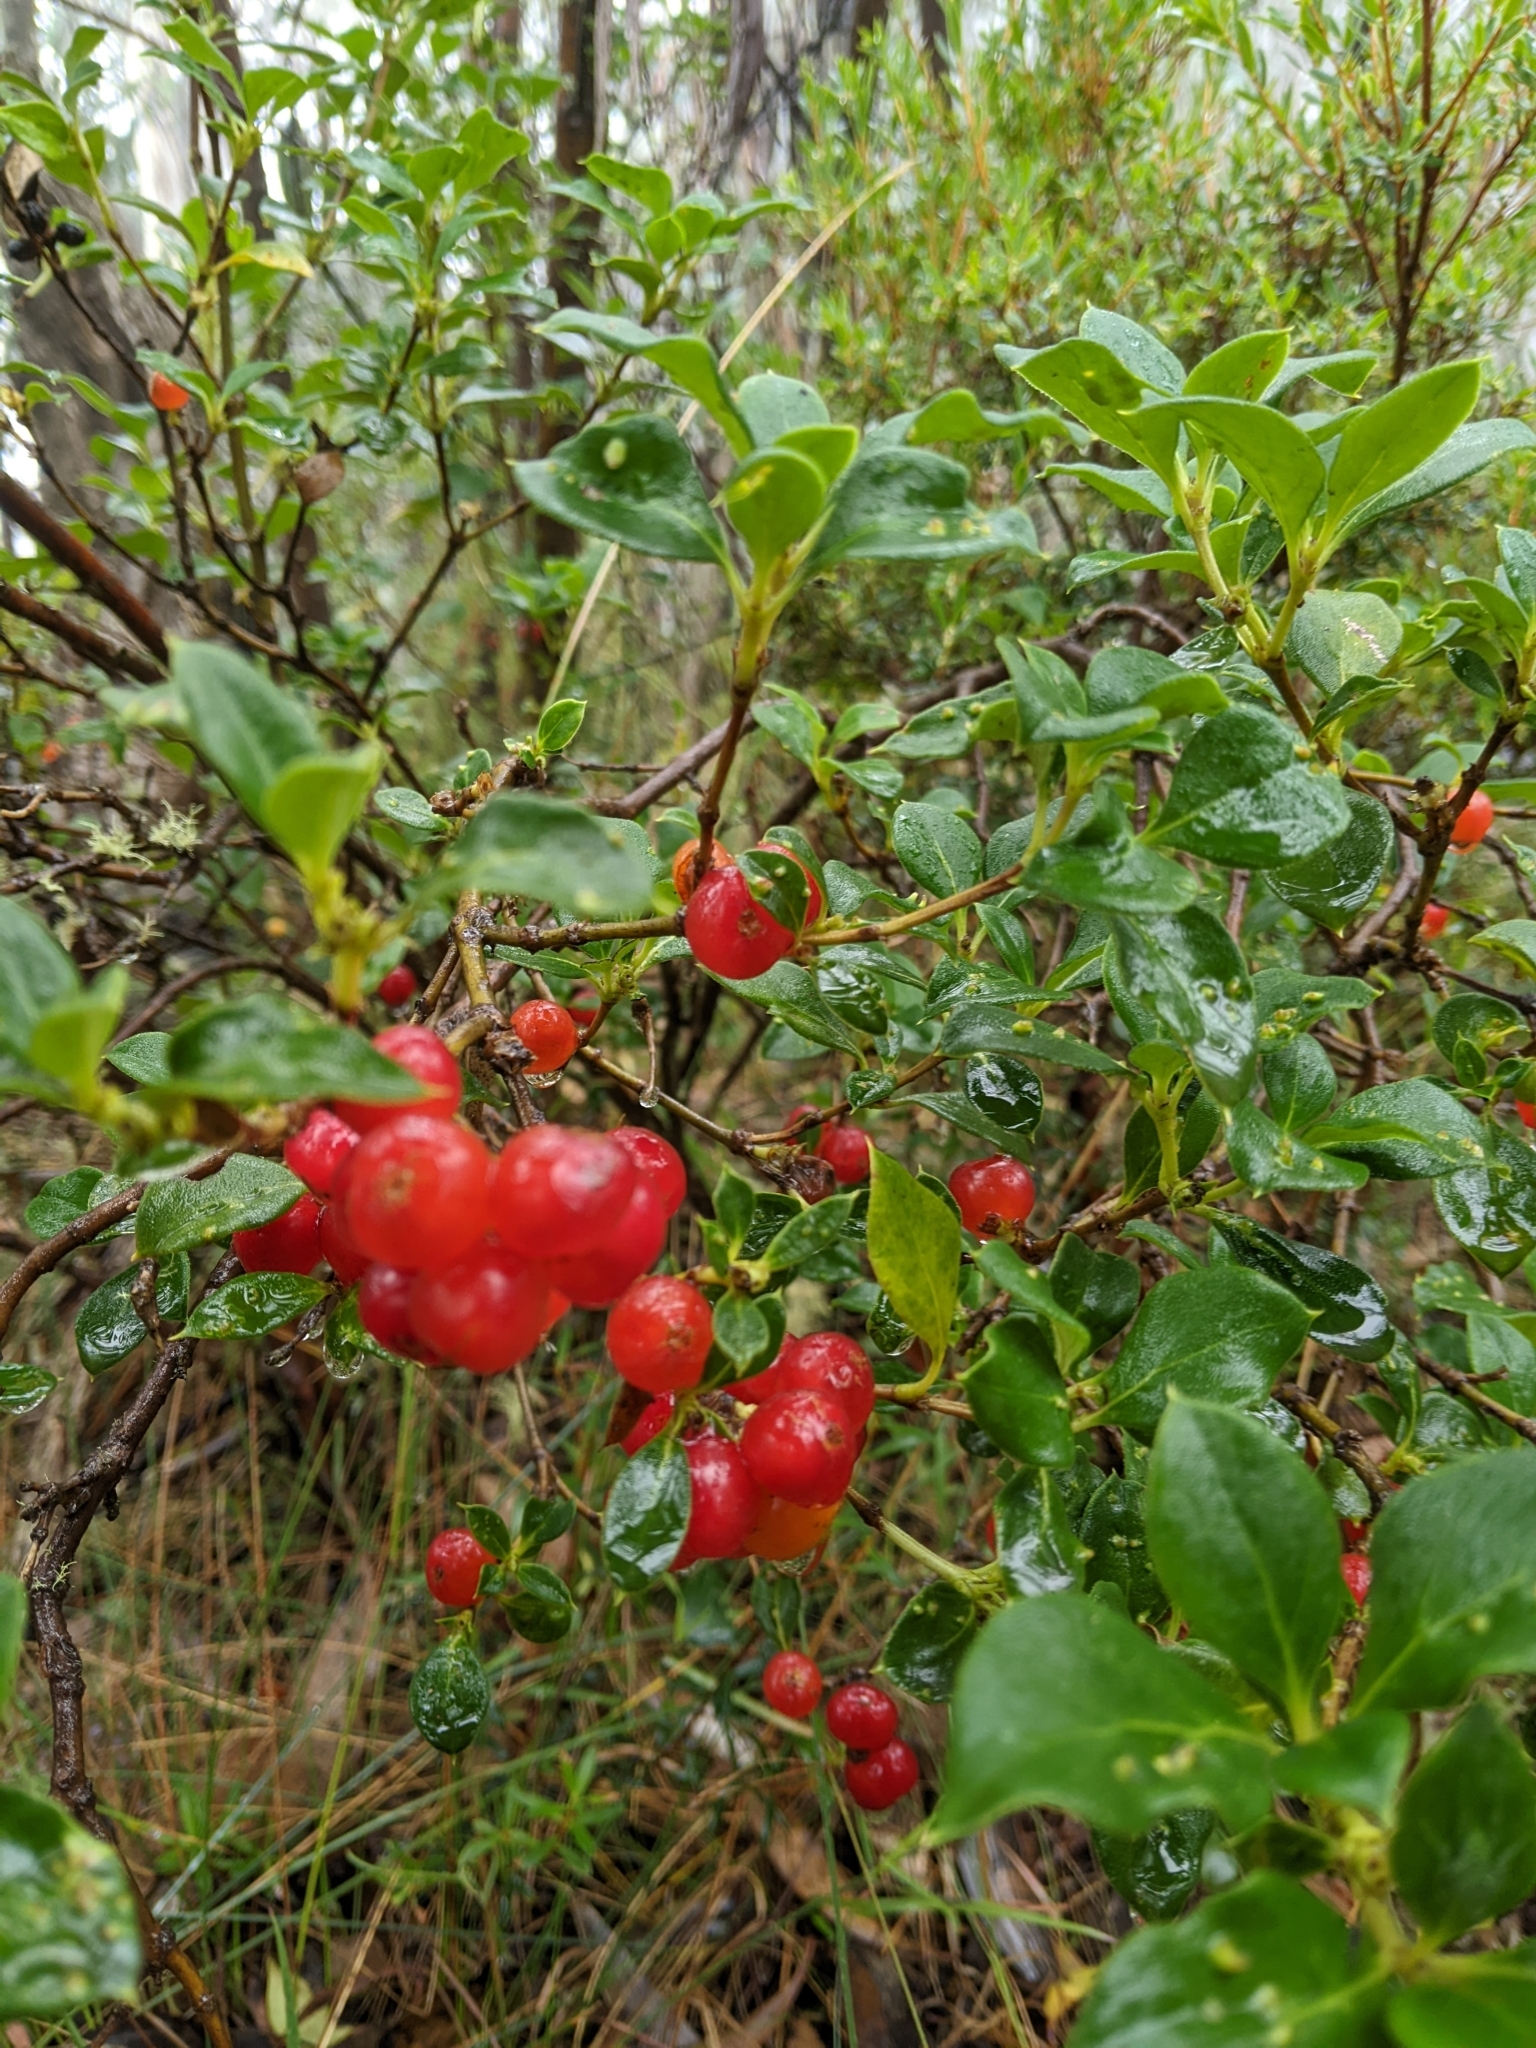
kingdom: Plantae
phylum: Tracheophyta
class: Magnoliopsida
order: Gentianales
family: Rubiaceae
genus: Coprosma
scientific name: Coprosma hirtella
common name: Rough coprosma
